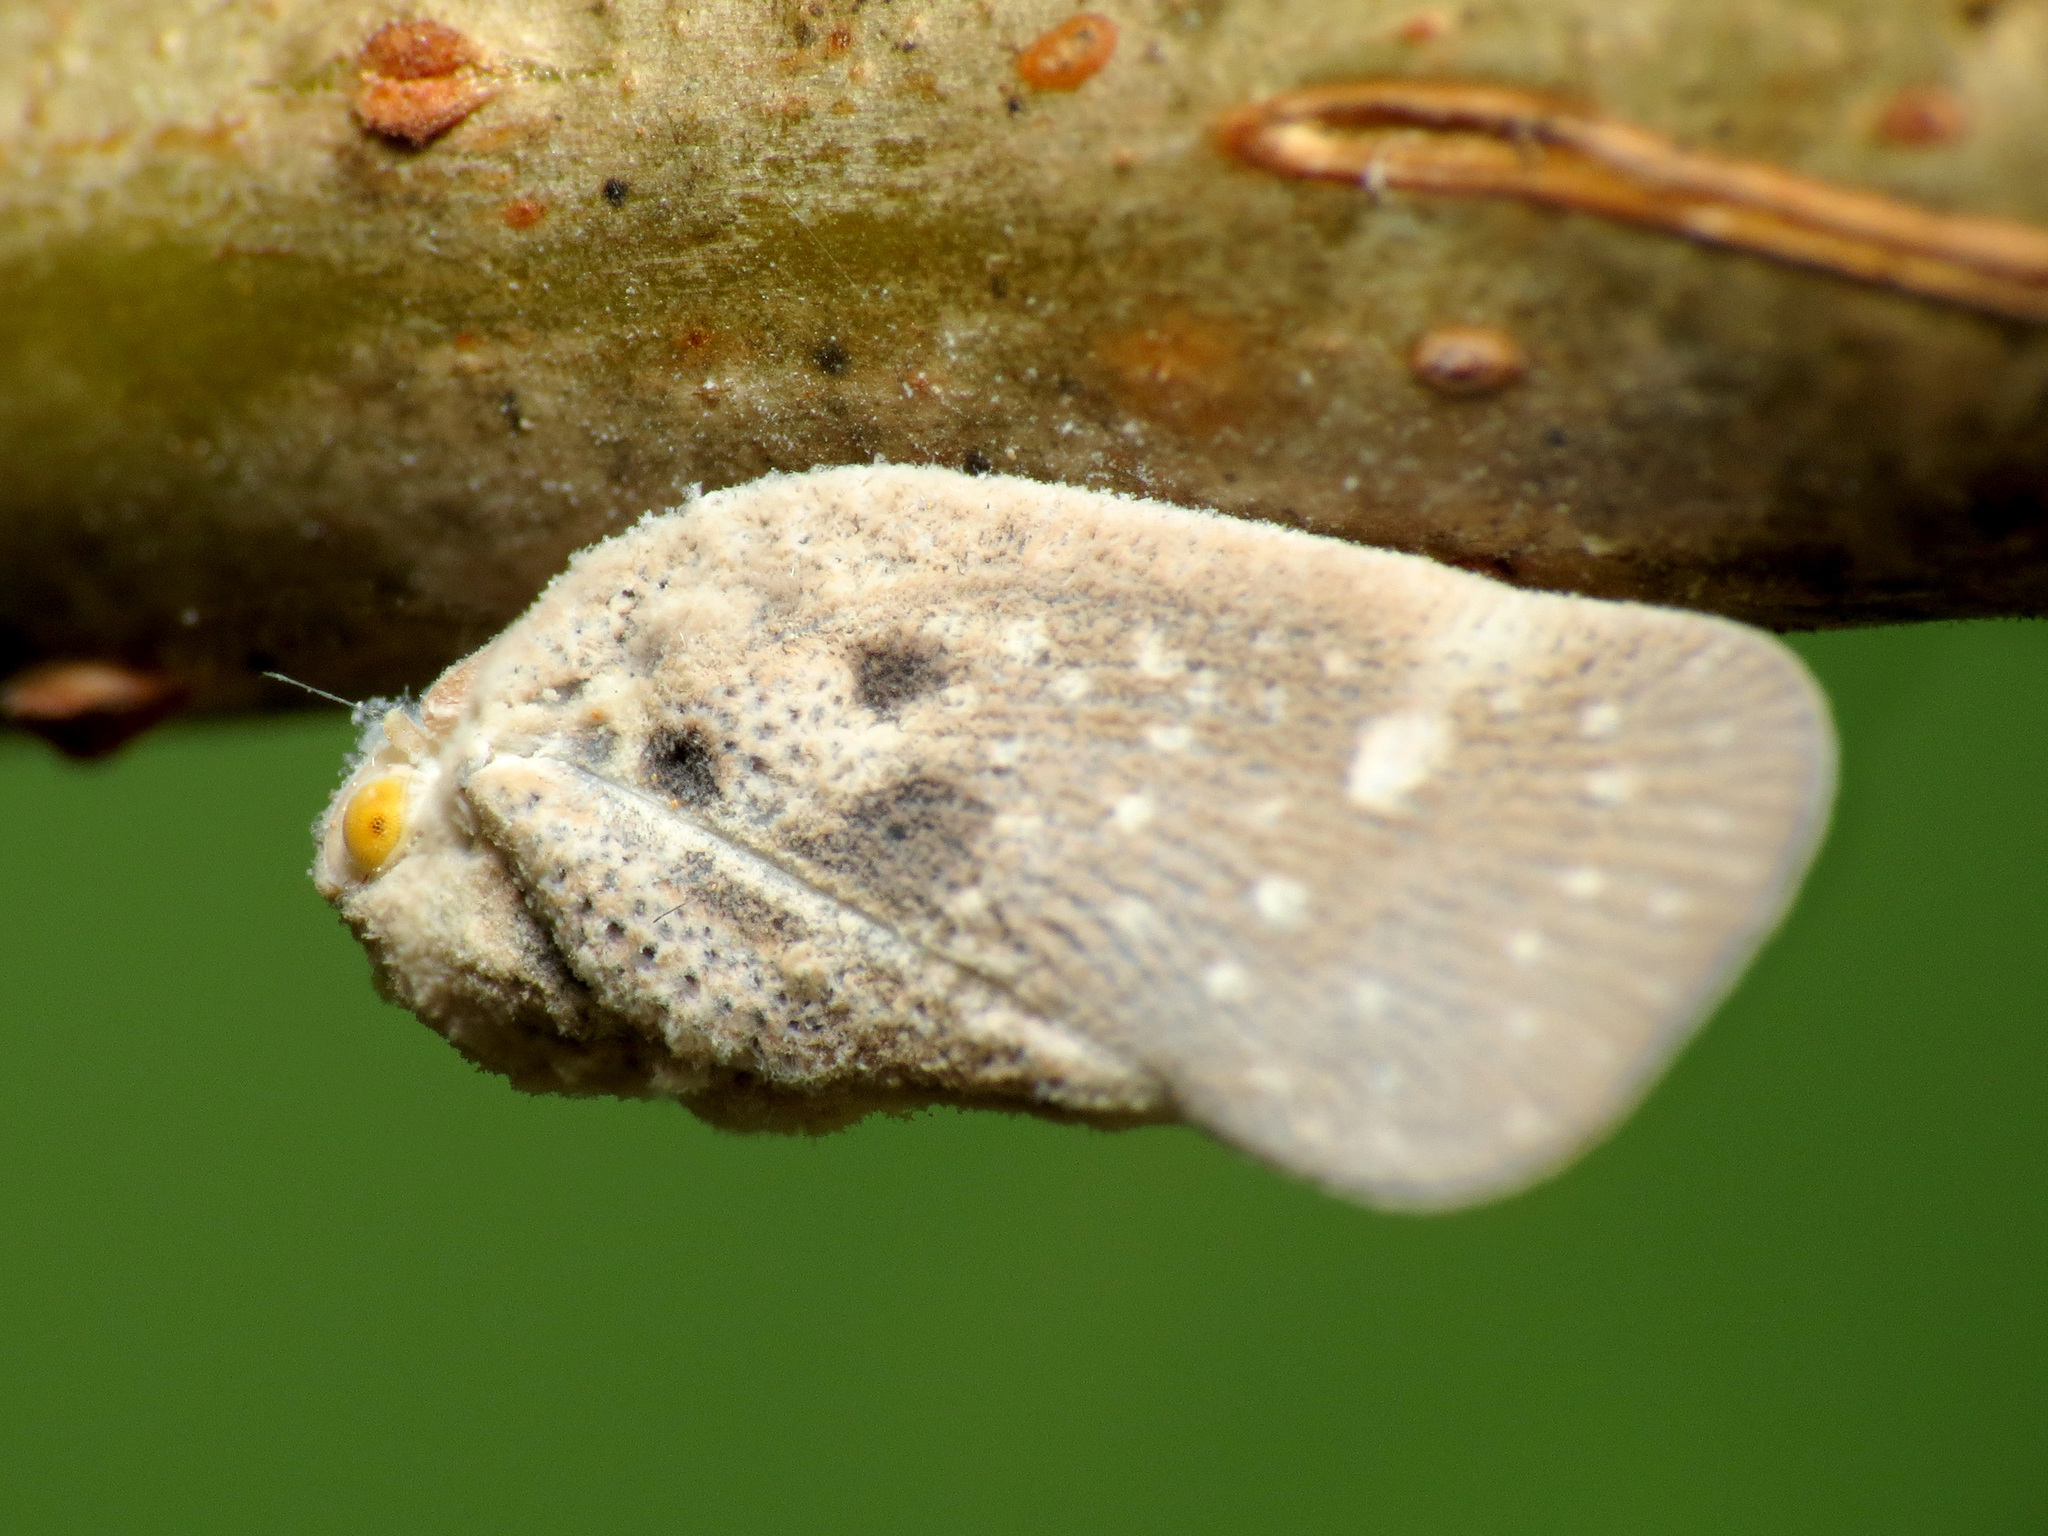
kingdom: Animalia
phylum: Arthropoda
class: Insecta
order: Hemiptera
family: Flatidae
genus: Metcalfa
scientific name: Metcalfa pruinosa
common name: Citrus flatid planthopper
